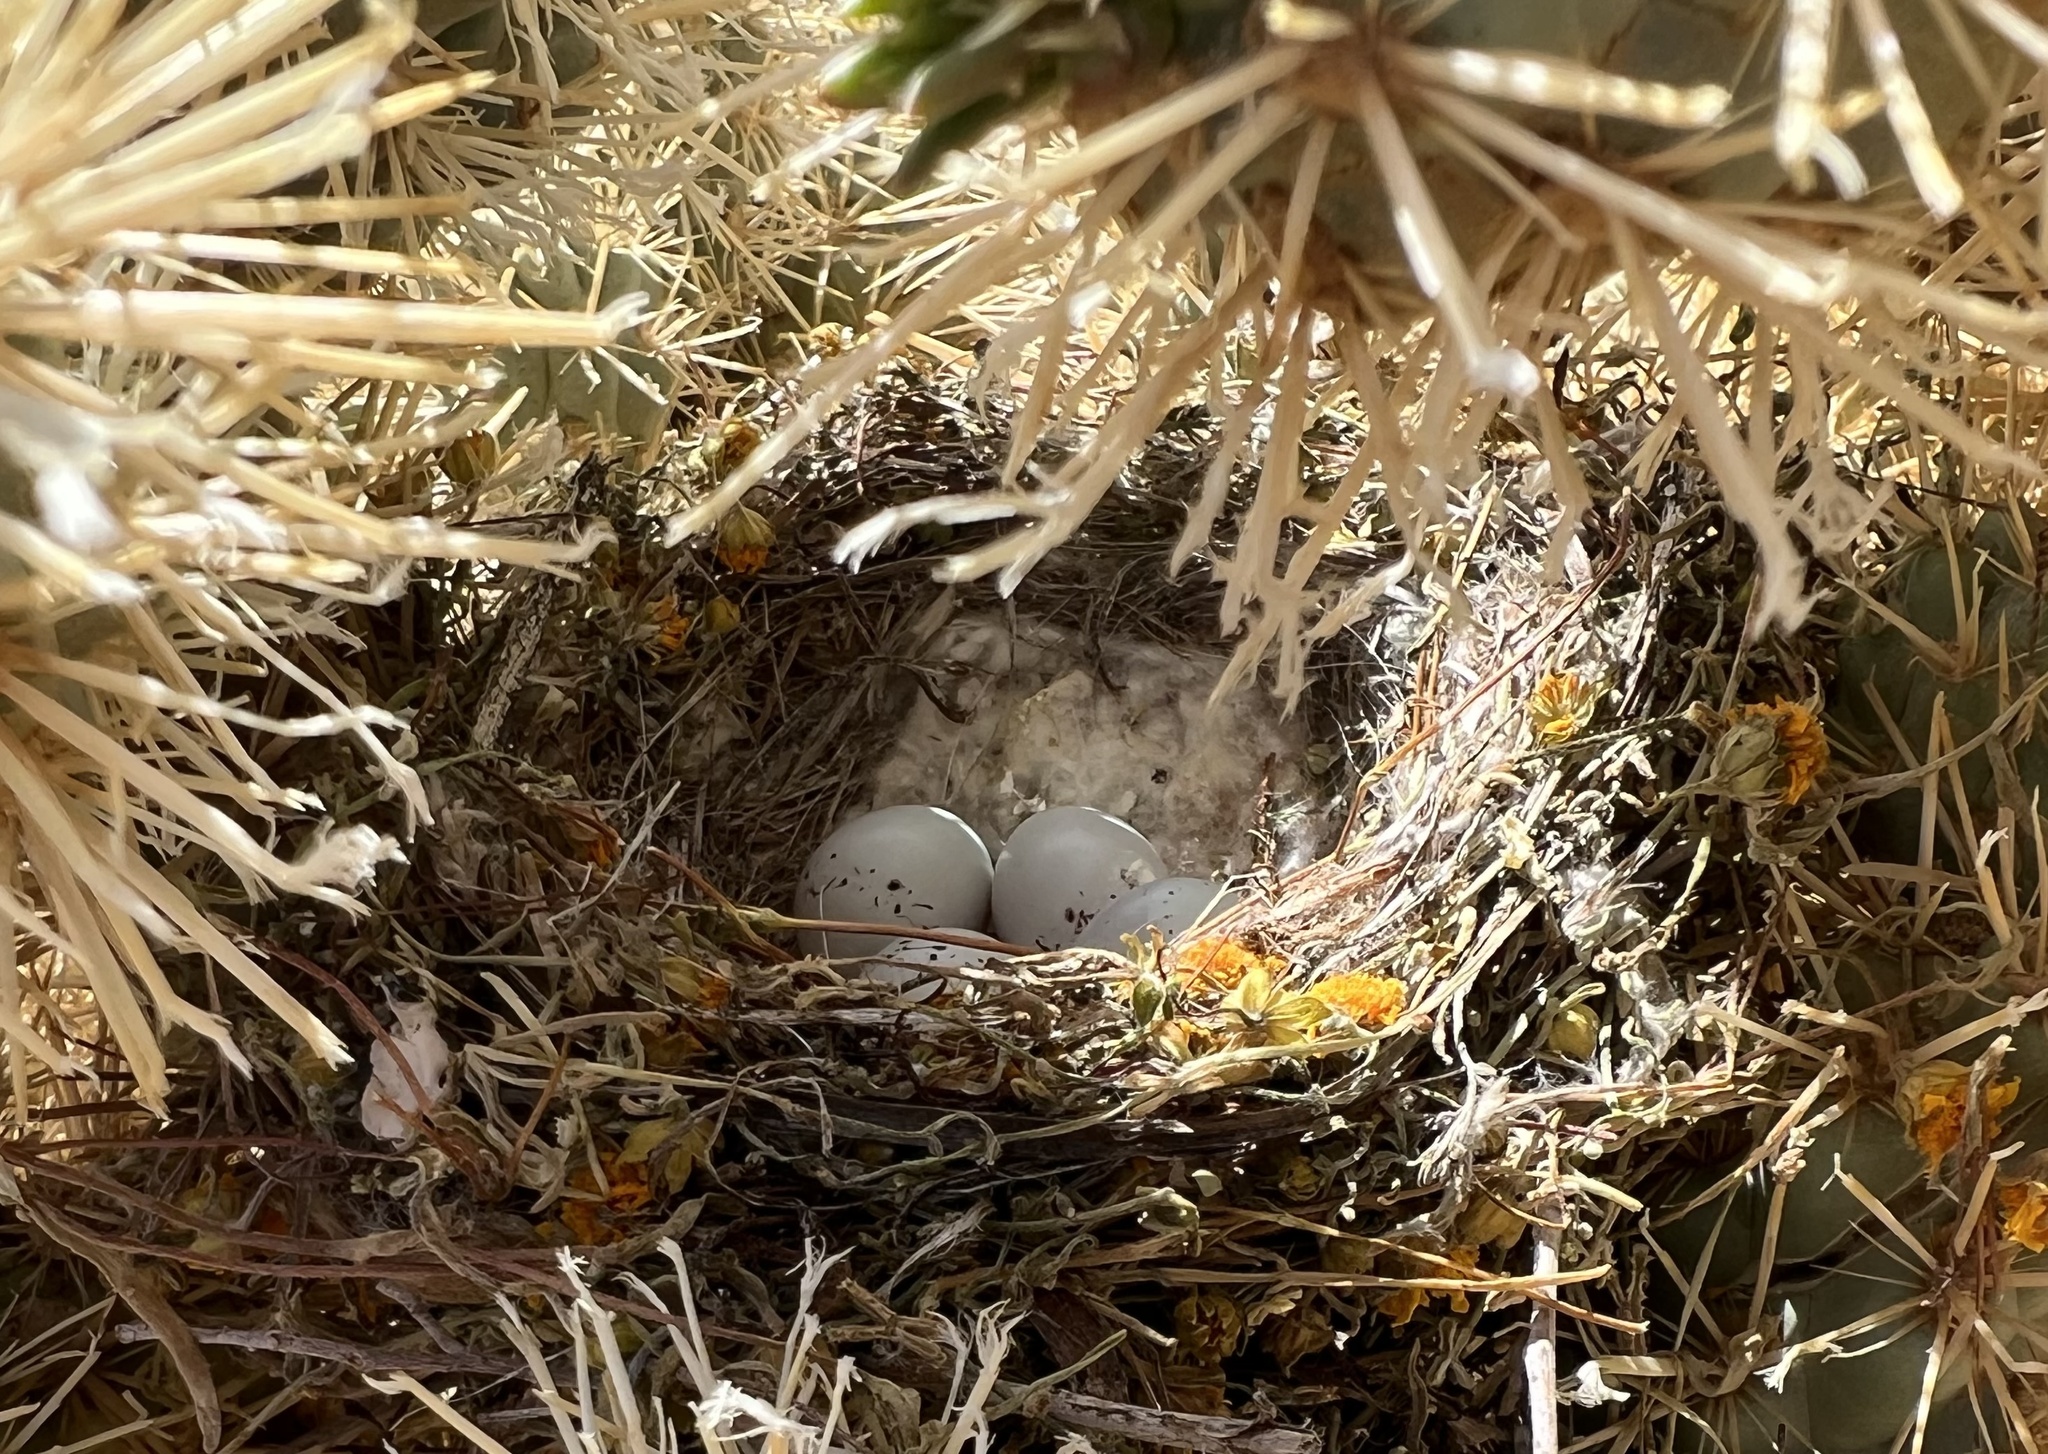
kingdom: Animalia
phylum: Chordata
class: Aves
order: Passeriformes
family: Fringillidae
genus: Haemorhous
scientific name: Haemorhous mexicanus
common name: House finch
